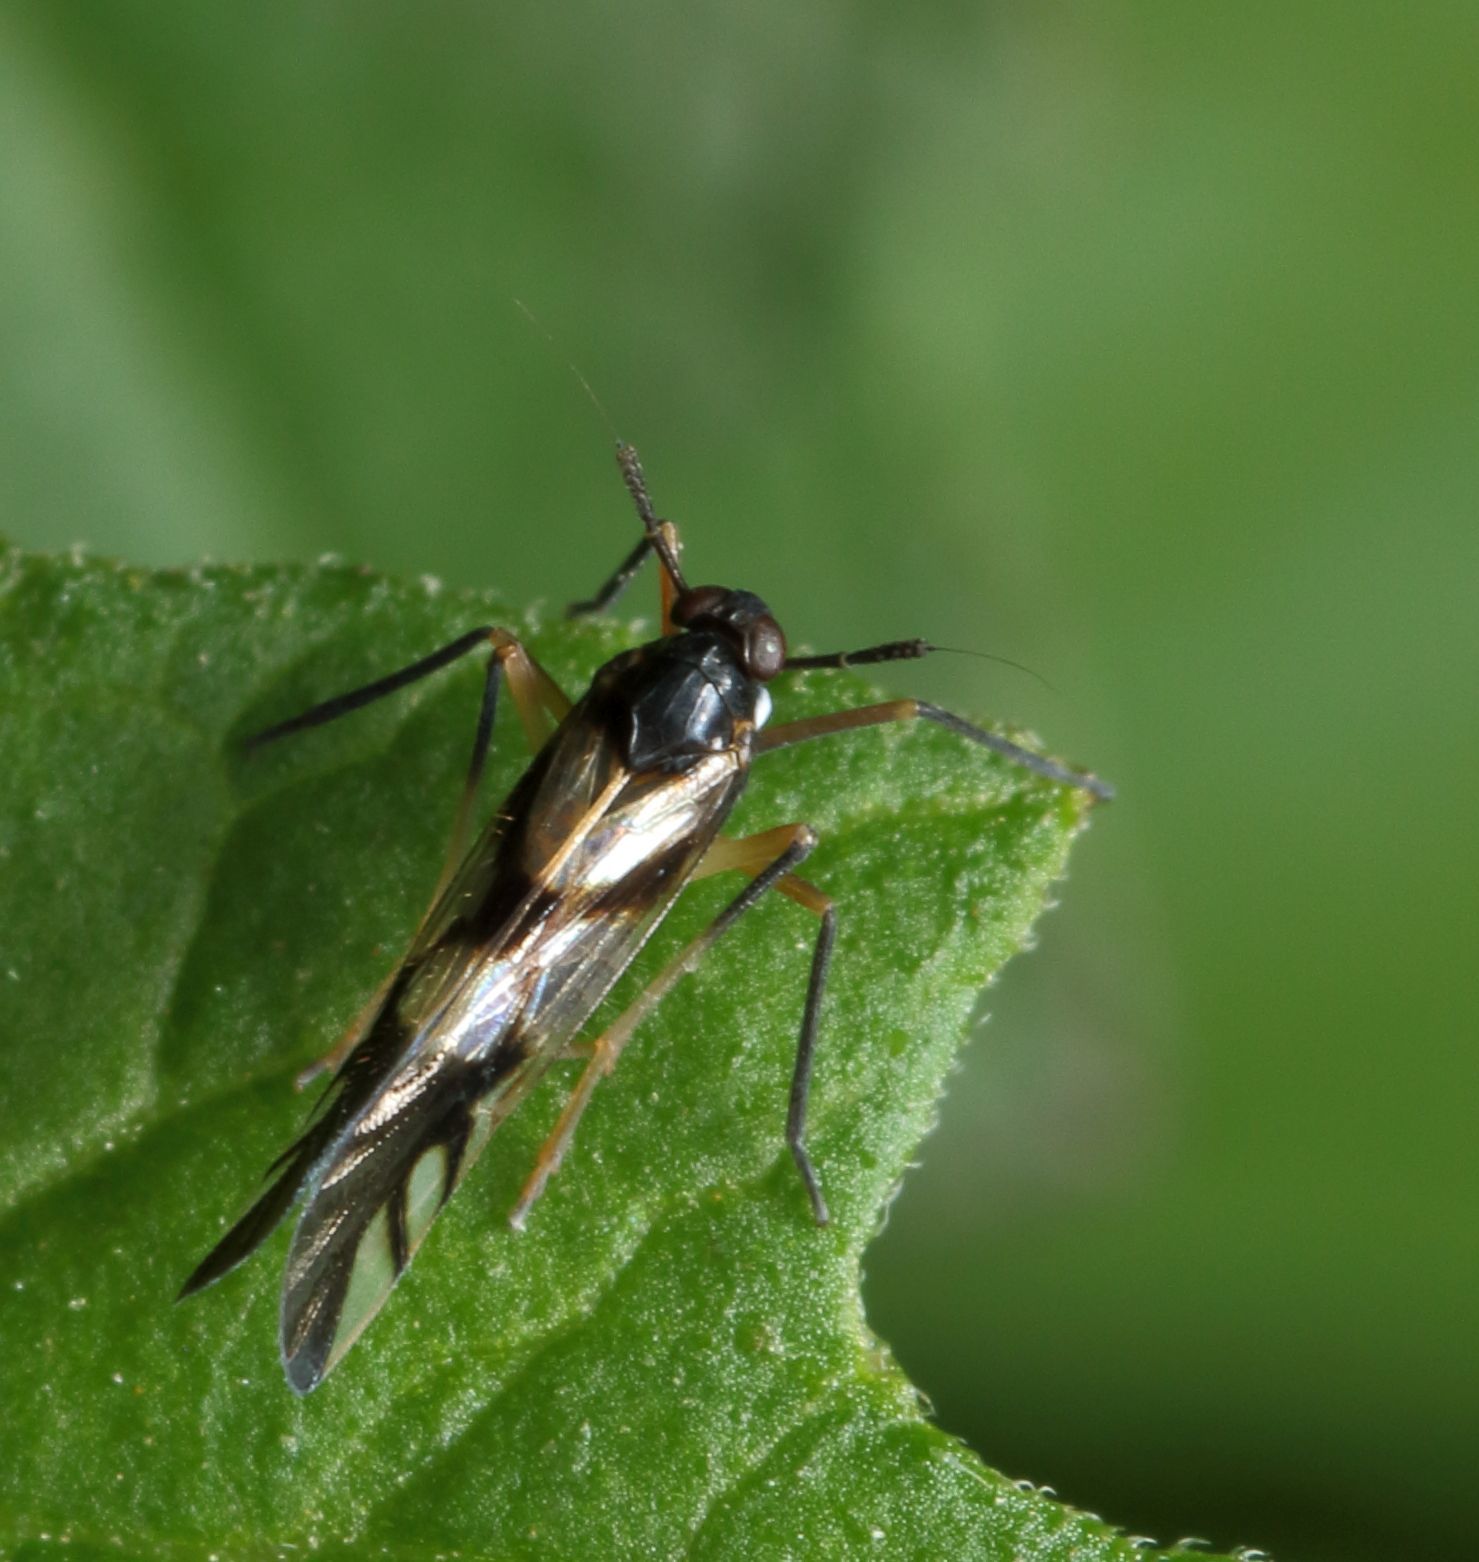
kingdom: Animalia
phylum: Arthropoda
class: Insecta
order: Hemiptera
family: Delphacidae
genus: Hapalomelus
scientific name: Hapalomelus flavipes
